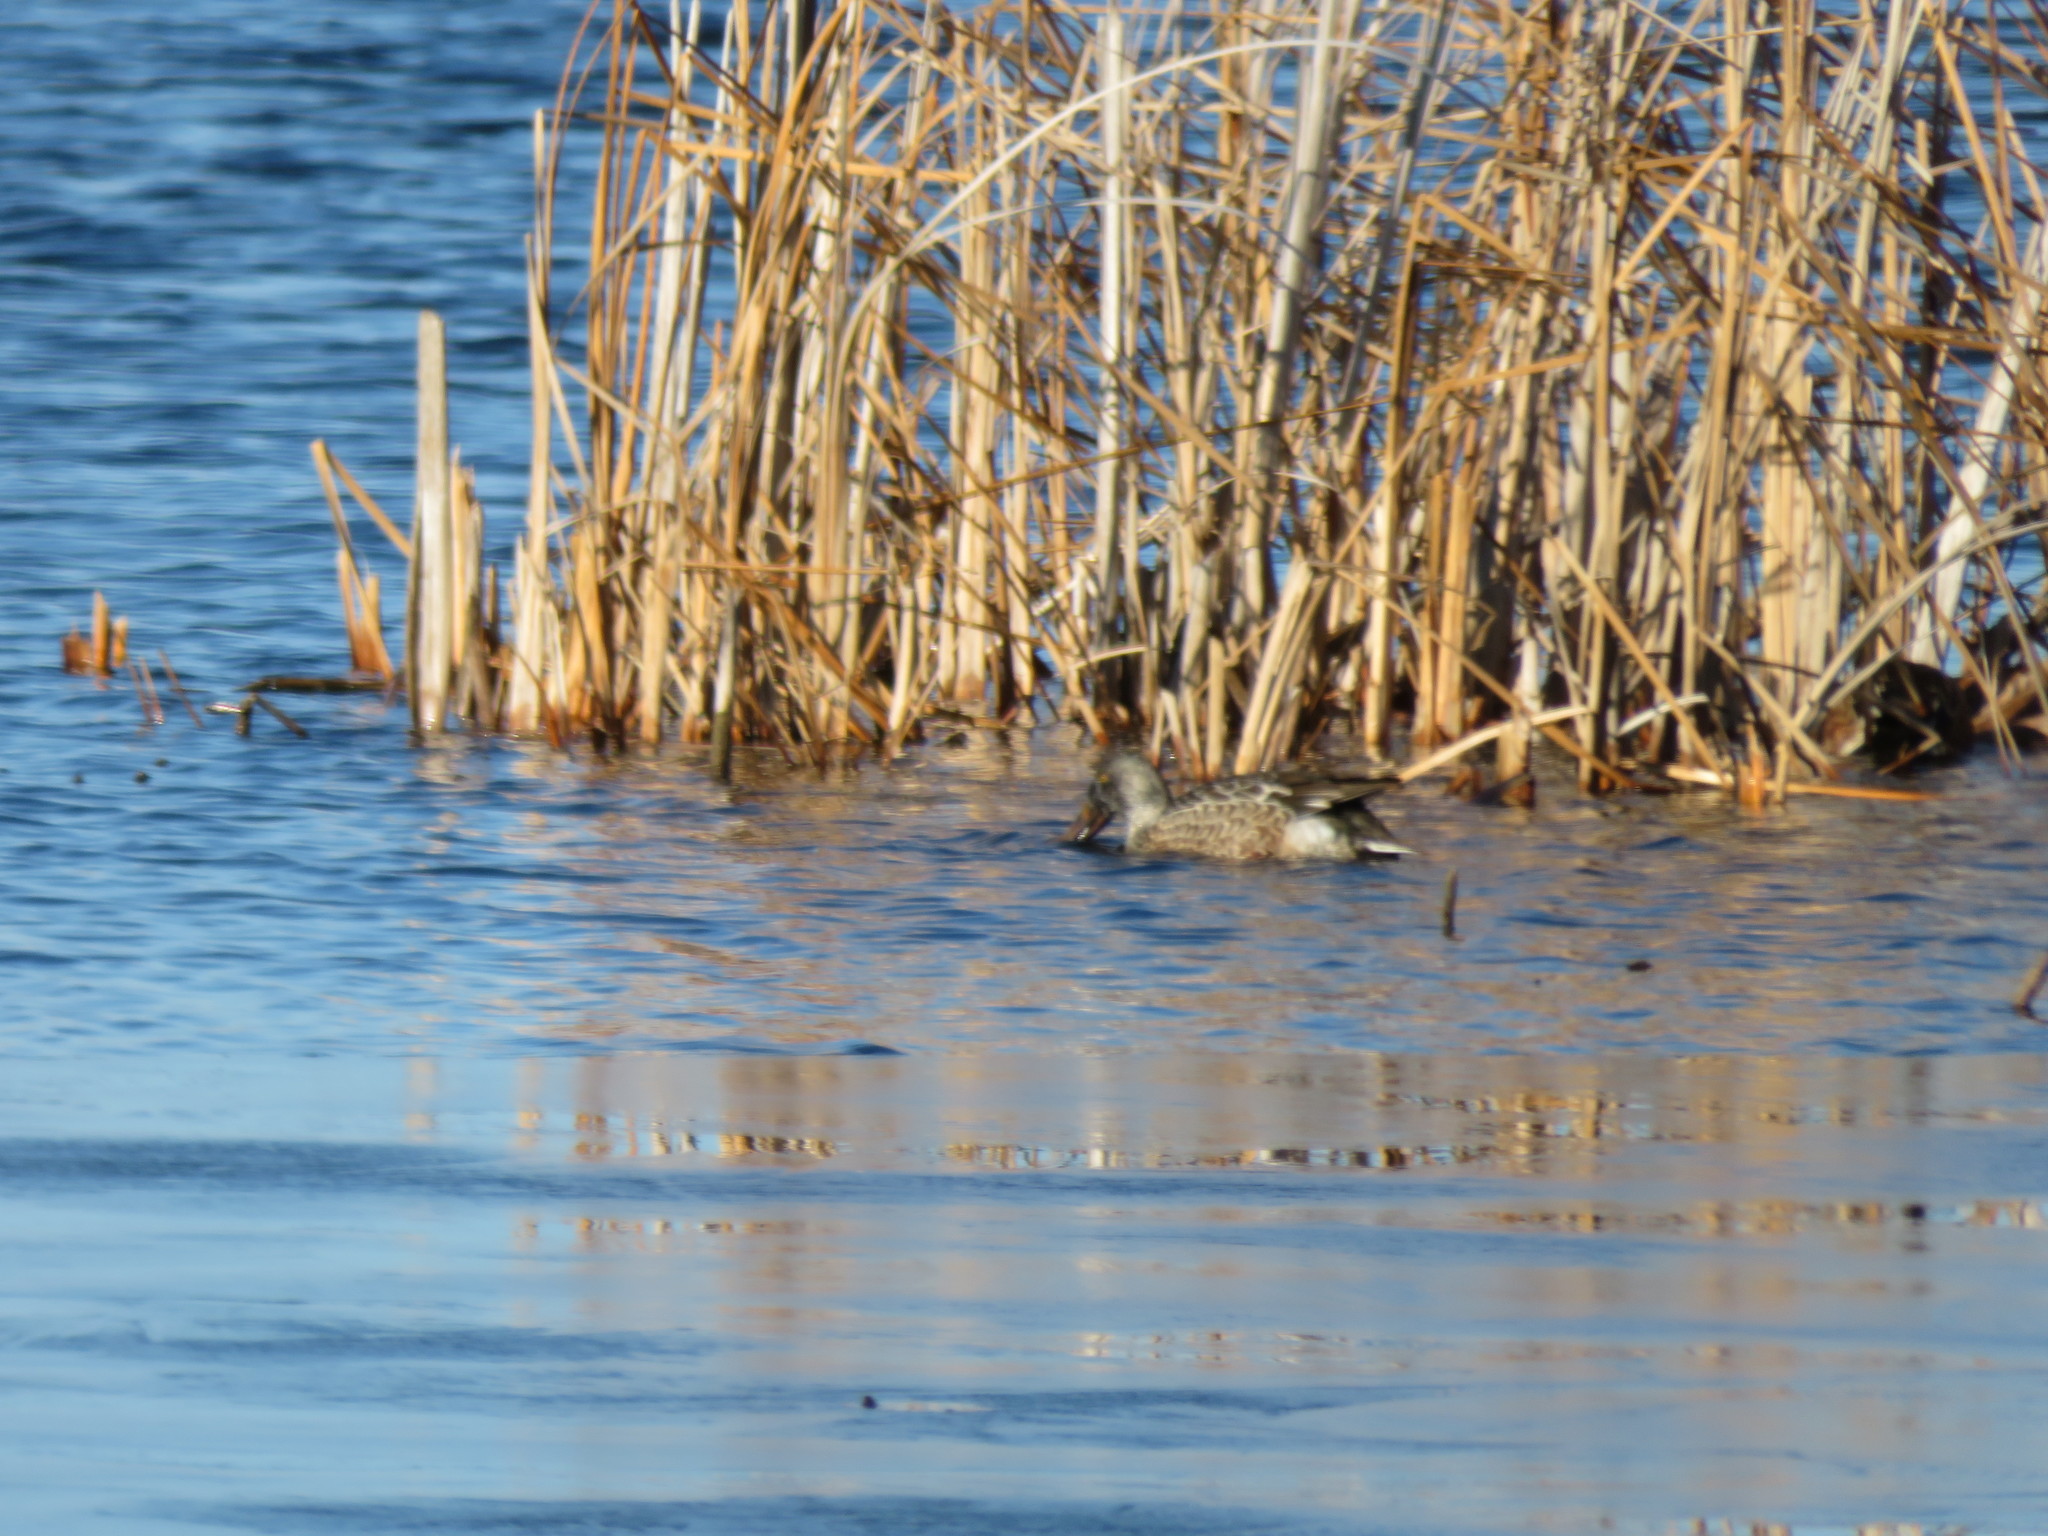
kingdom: Animalia
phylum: Chordata
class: Aves
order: Anseriformes
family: Anatidae
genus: Spatula
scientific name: Spatula clypeata
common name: Northern shoveler
